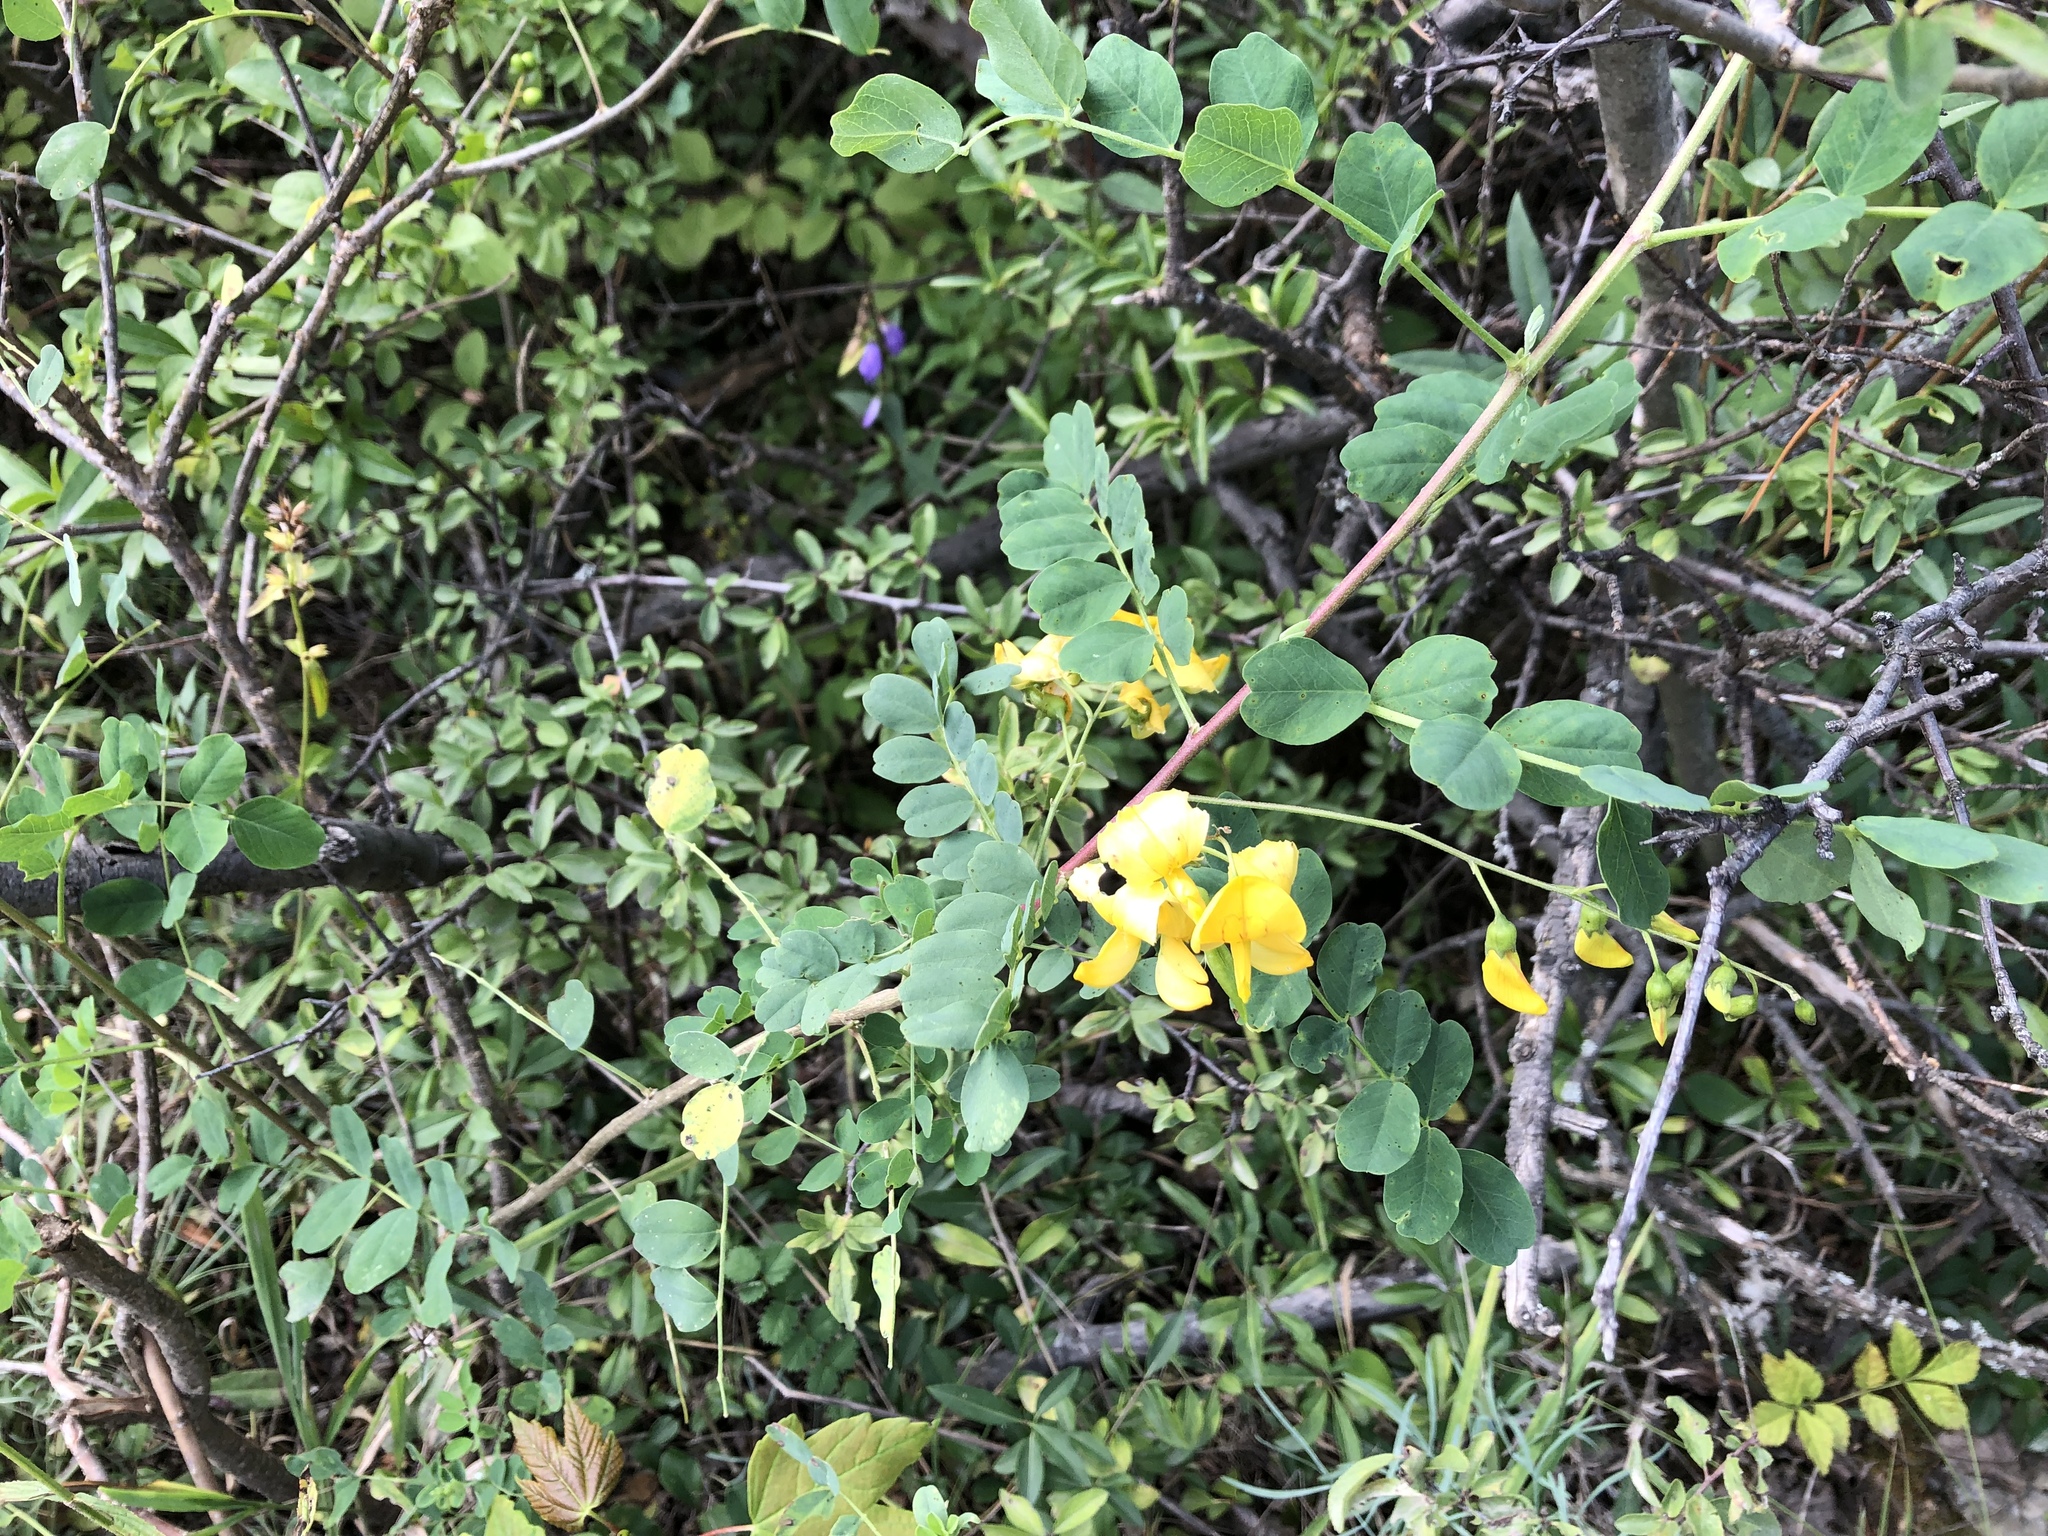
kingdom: Plantae
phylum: Tracheophyta
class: Magnoliopsida
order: Fabales
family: Fabaceae
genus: Colutea
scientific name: Colutea arborescens
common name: Bladder-senna
